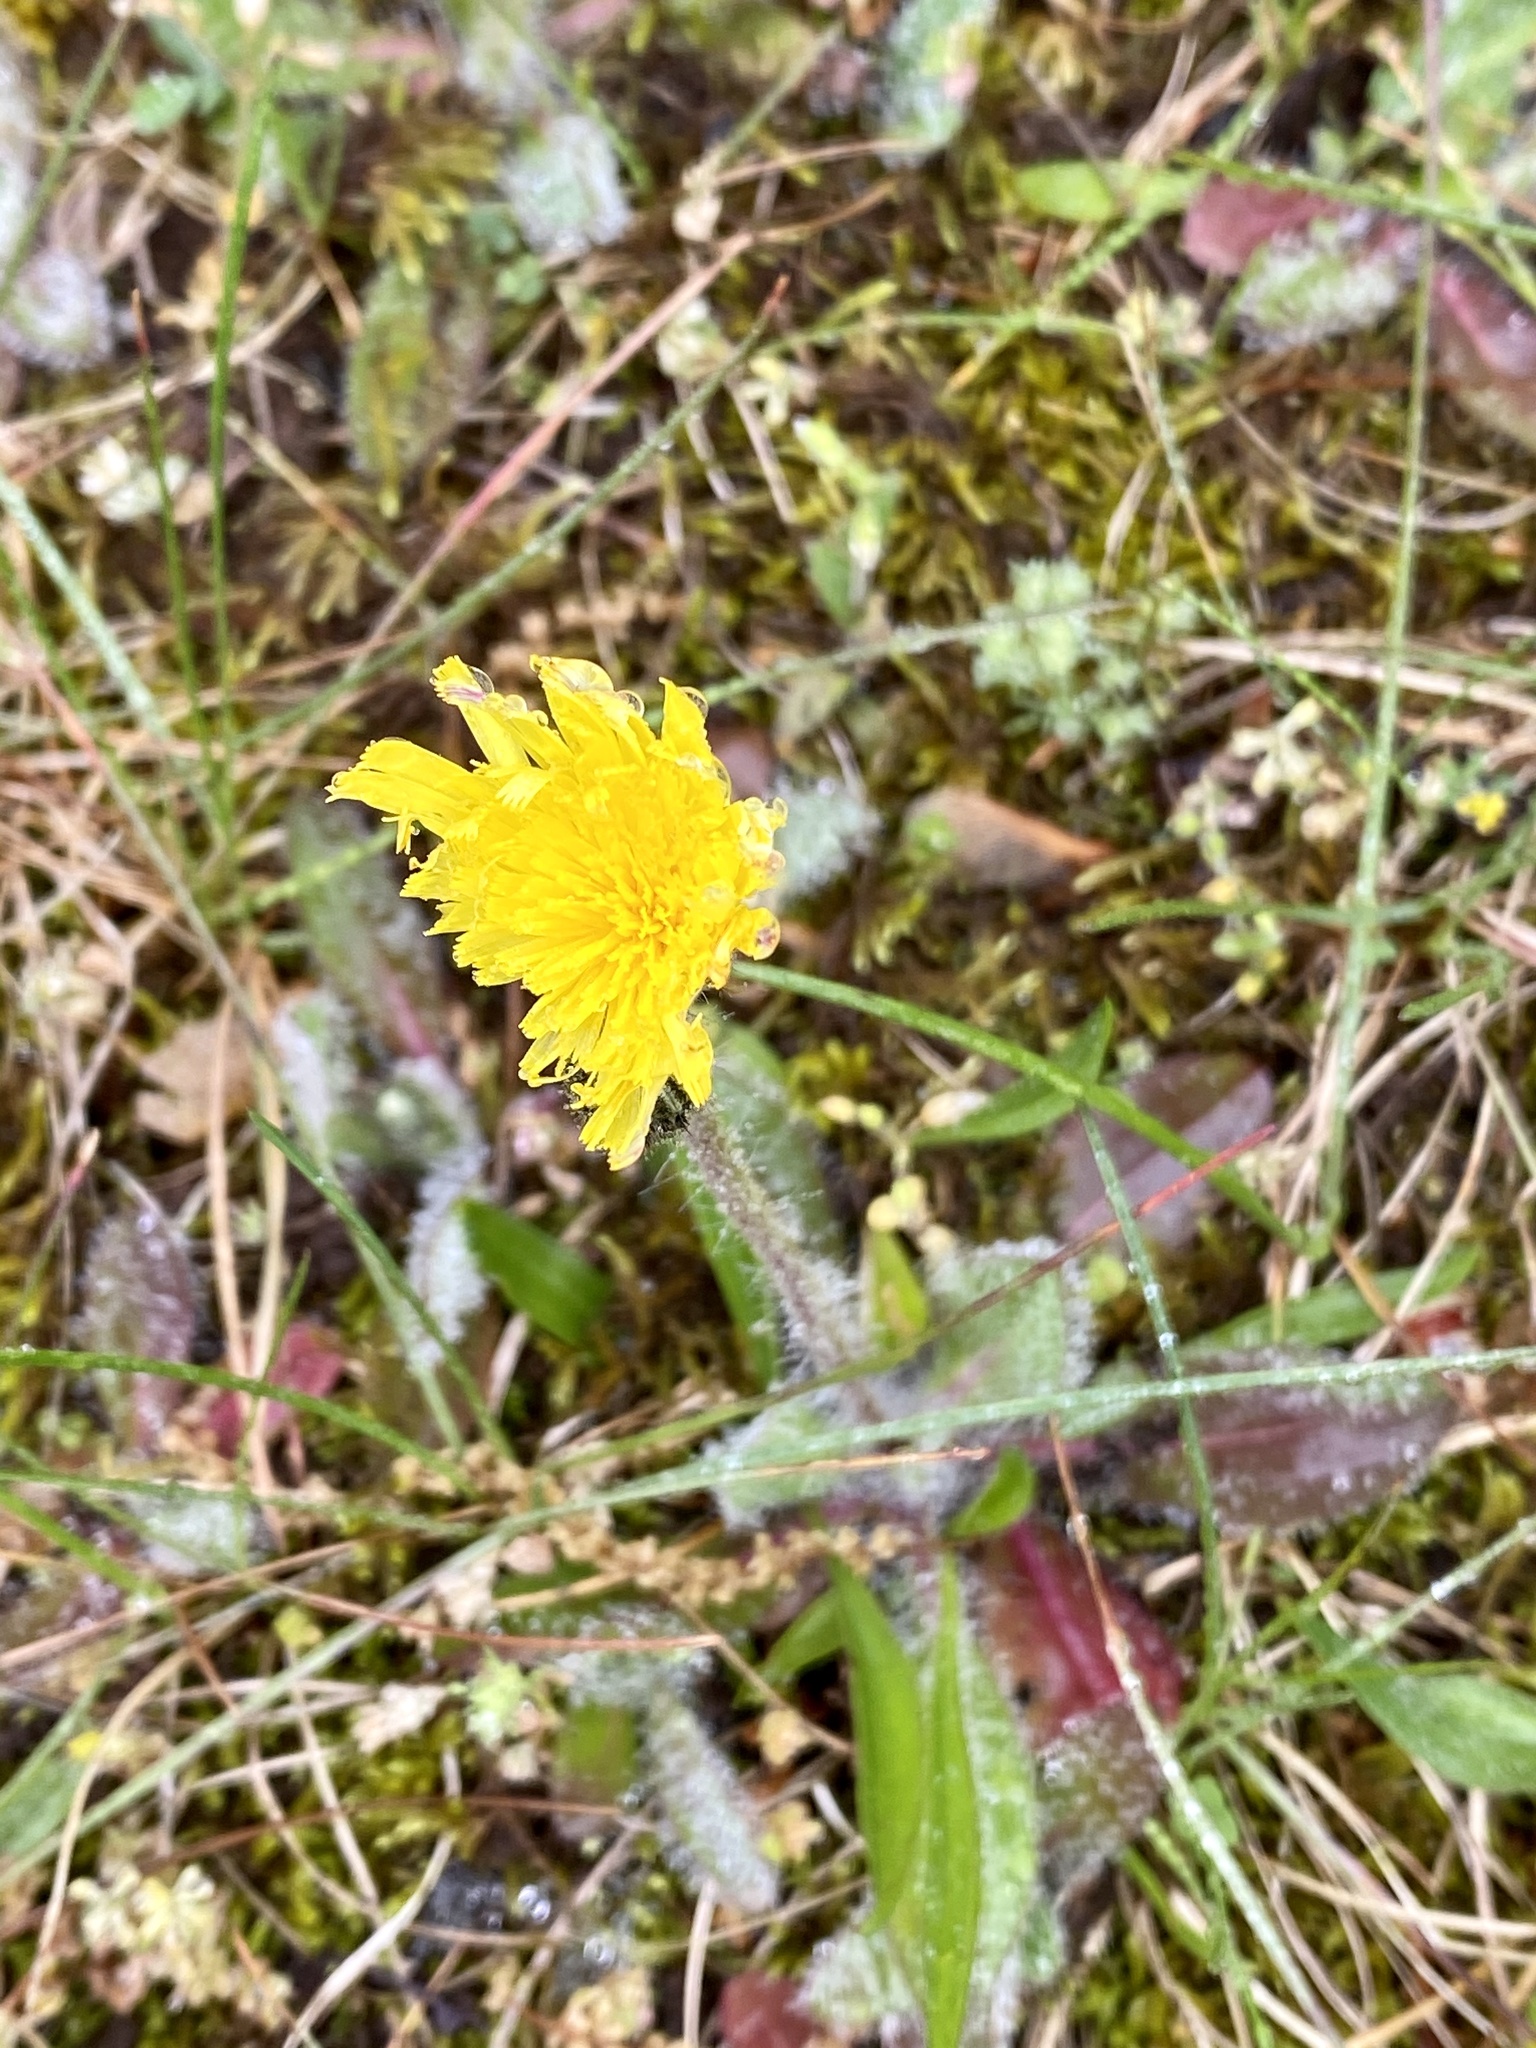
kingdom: Plantae
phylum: Tracheophyta
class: Magnoliopsida
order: Asterales
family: Asteraceae
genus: Pilosella
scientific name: Pilosella caespitosa
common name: Yellow fox-and-cubs
